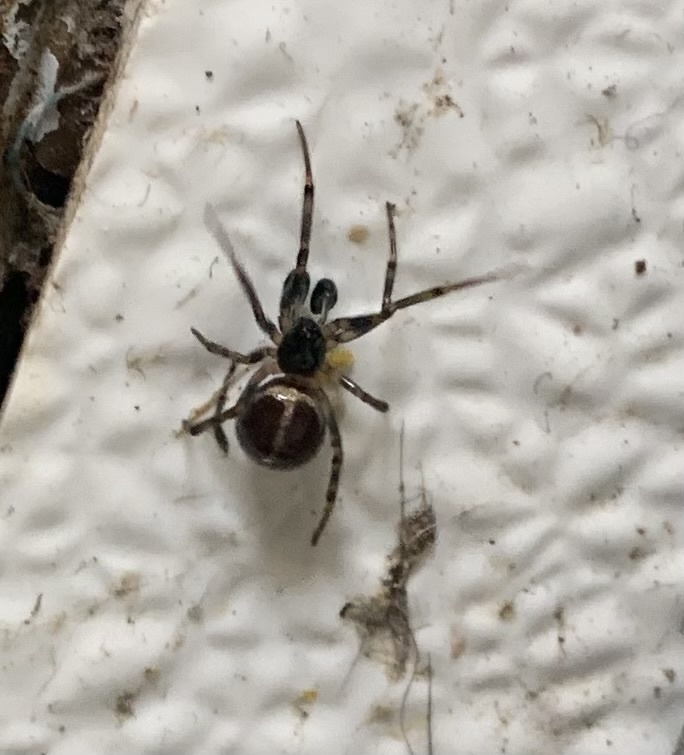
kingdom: Animalia
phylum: Arthropoda
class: Arachnida
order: Araneae
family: Theridiidae
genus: Steatoda
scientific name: Steatoda borealis
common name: Boreal combfoot
